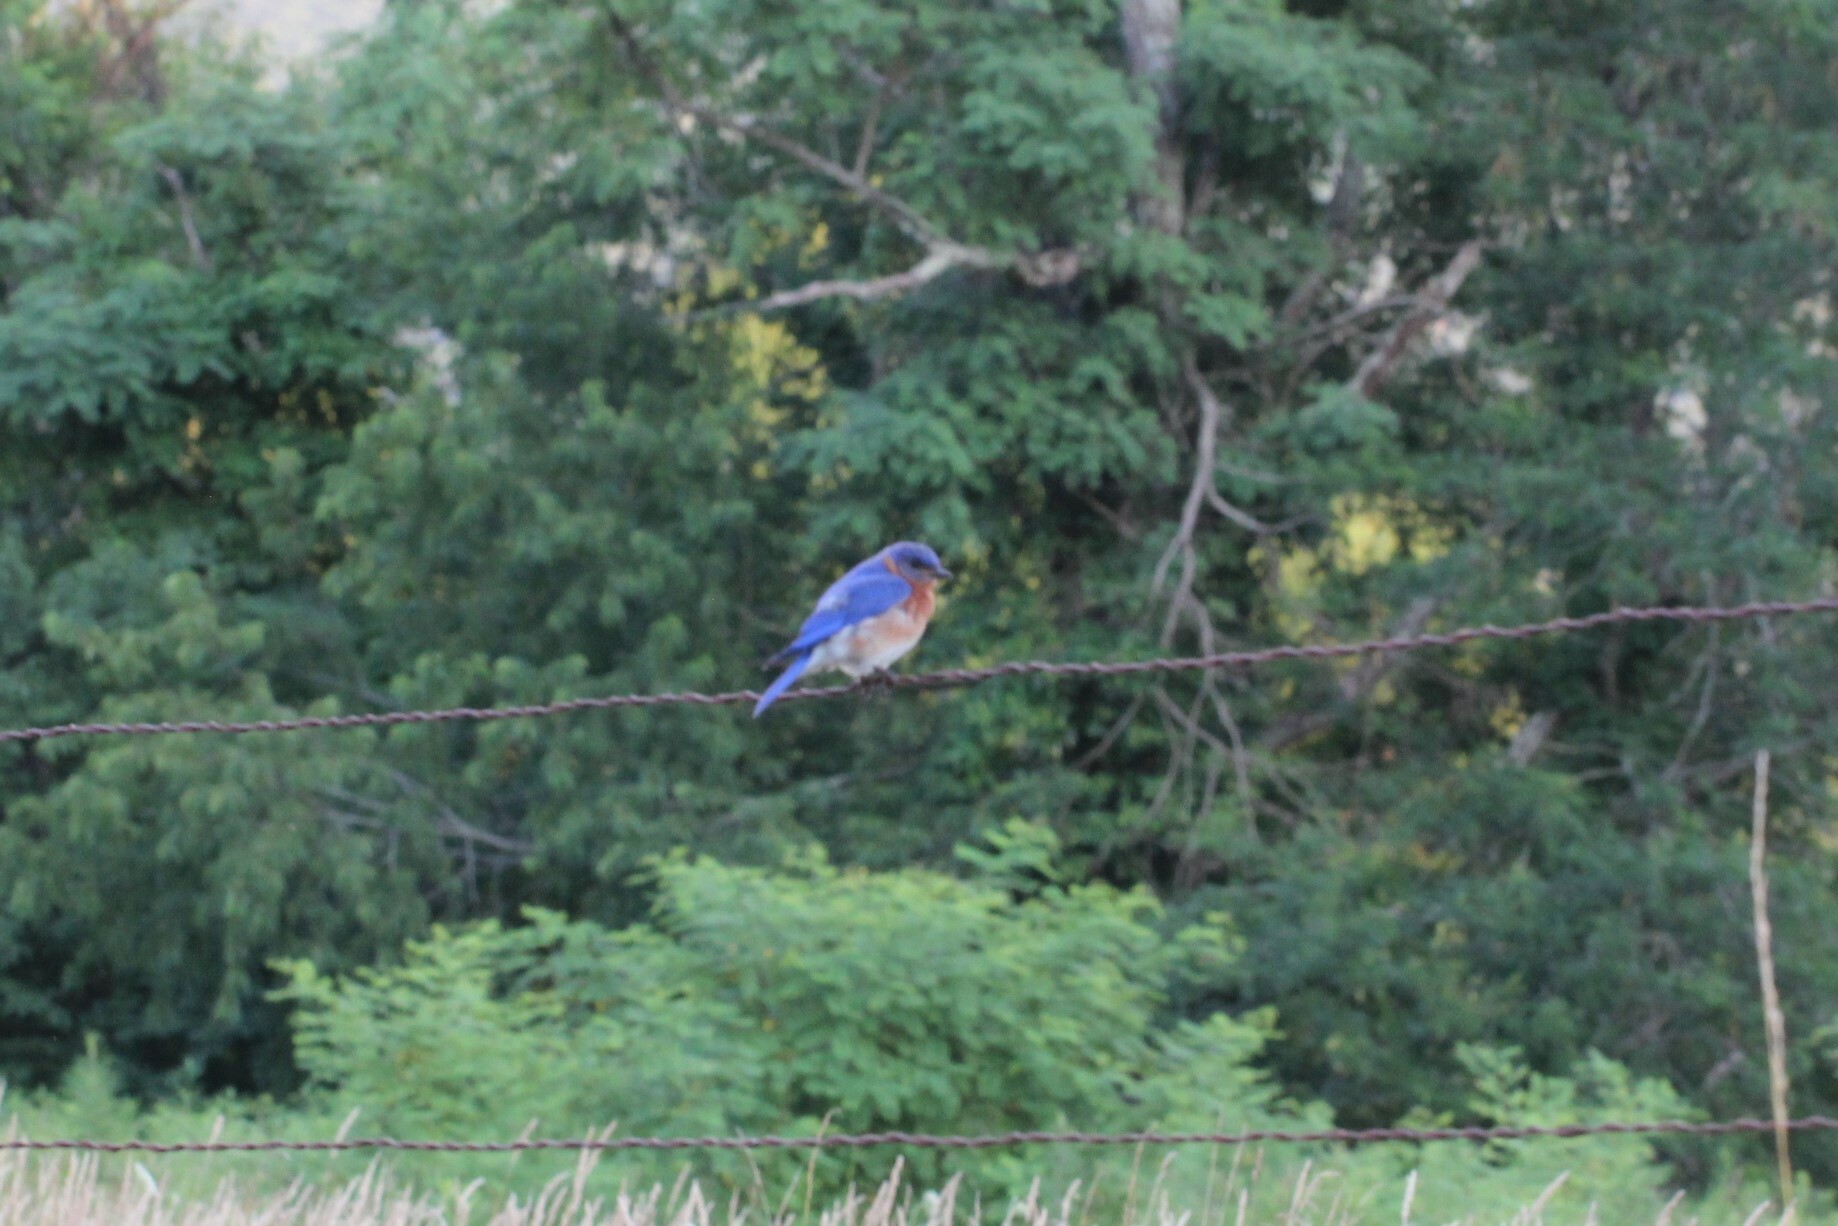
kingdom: Animalia
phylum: Chordata
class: Aves
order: Passeriformes
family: Turdidae
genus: Sialia
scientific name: Sialia sialis
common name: Eastern bluebird
